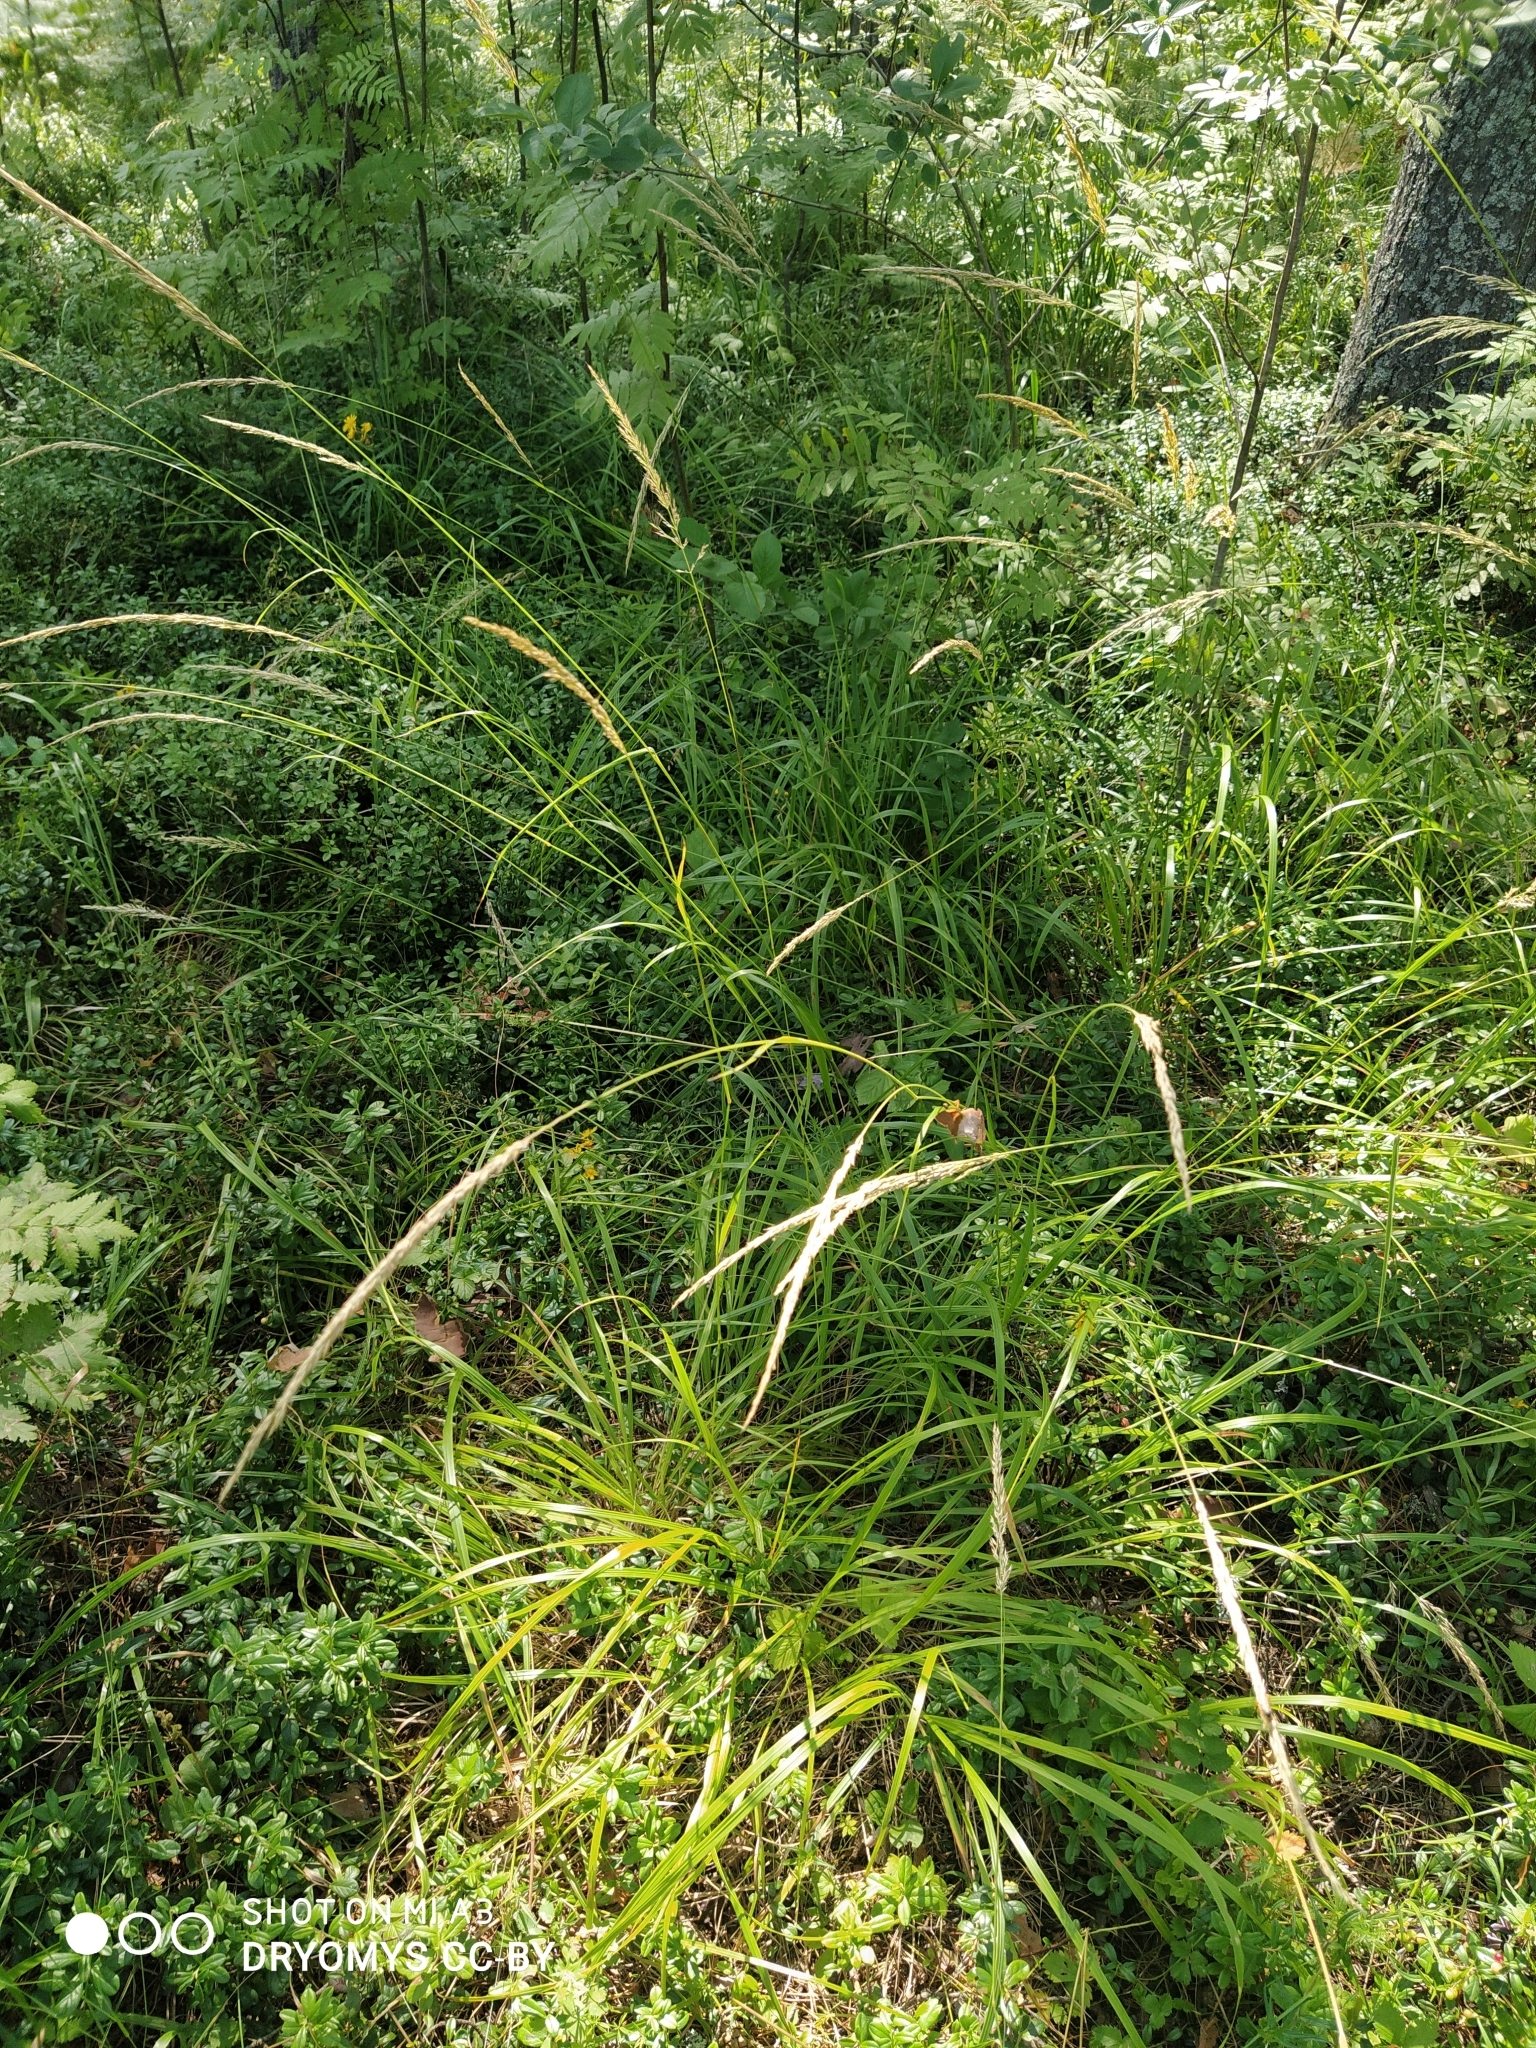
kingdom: Plantae
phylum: Tracheophyta
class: Liliopsida
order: Poales
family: Poaceae
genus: Calamagrostis
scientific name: Calamagrostis arundinacea
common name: Metskastik
